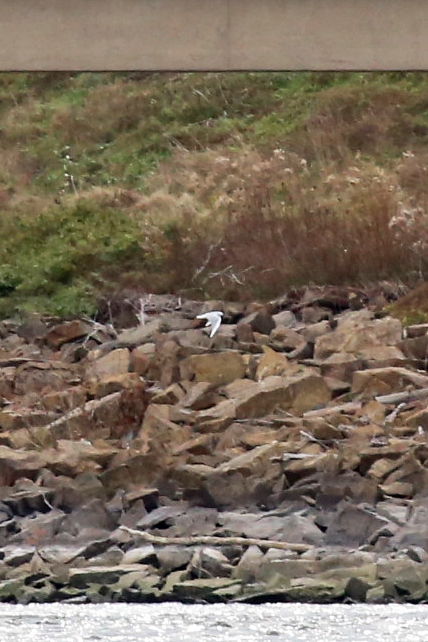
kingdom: Animalia
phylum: Chordata
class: Aves
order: Charadriiformes
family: Laridae
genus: Chroicocephalus
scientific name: Chroicocephalus philadelphia
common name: Bonaparte's gull
